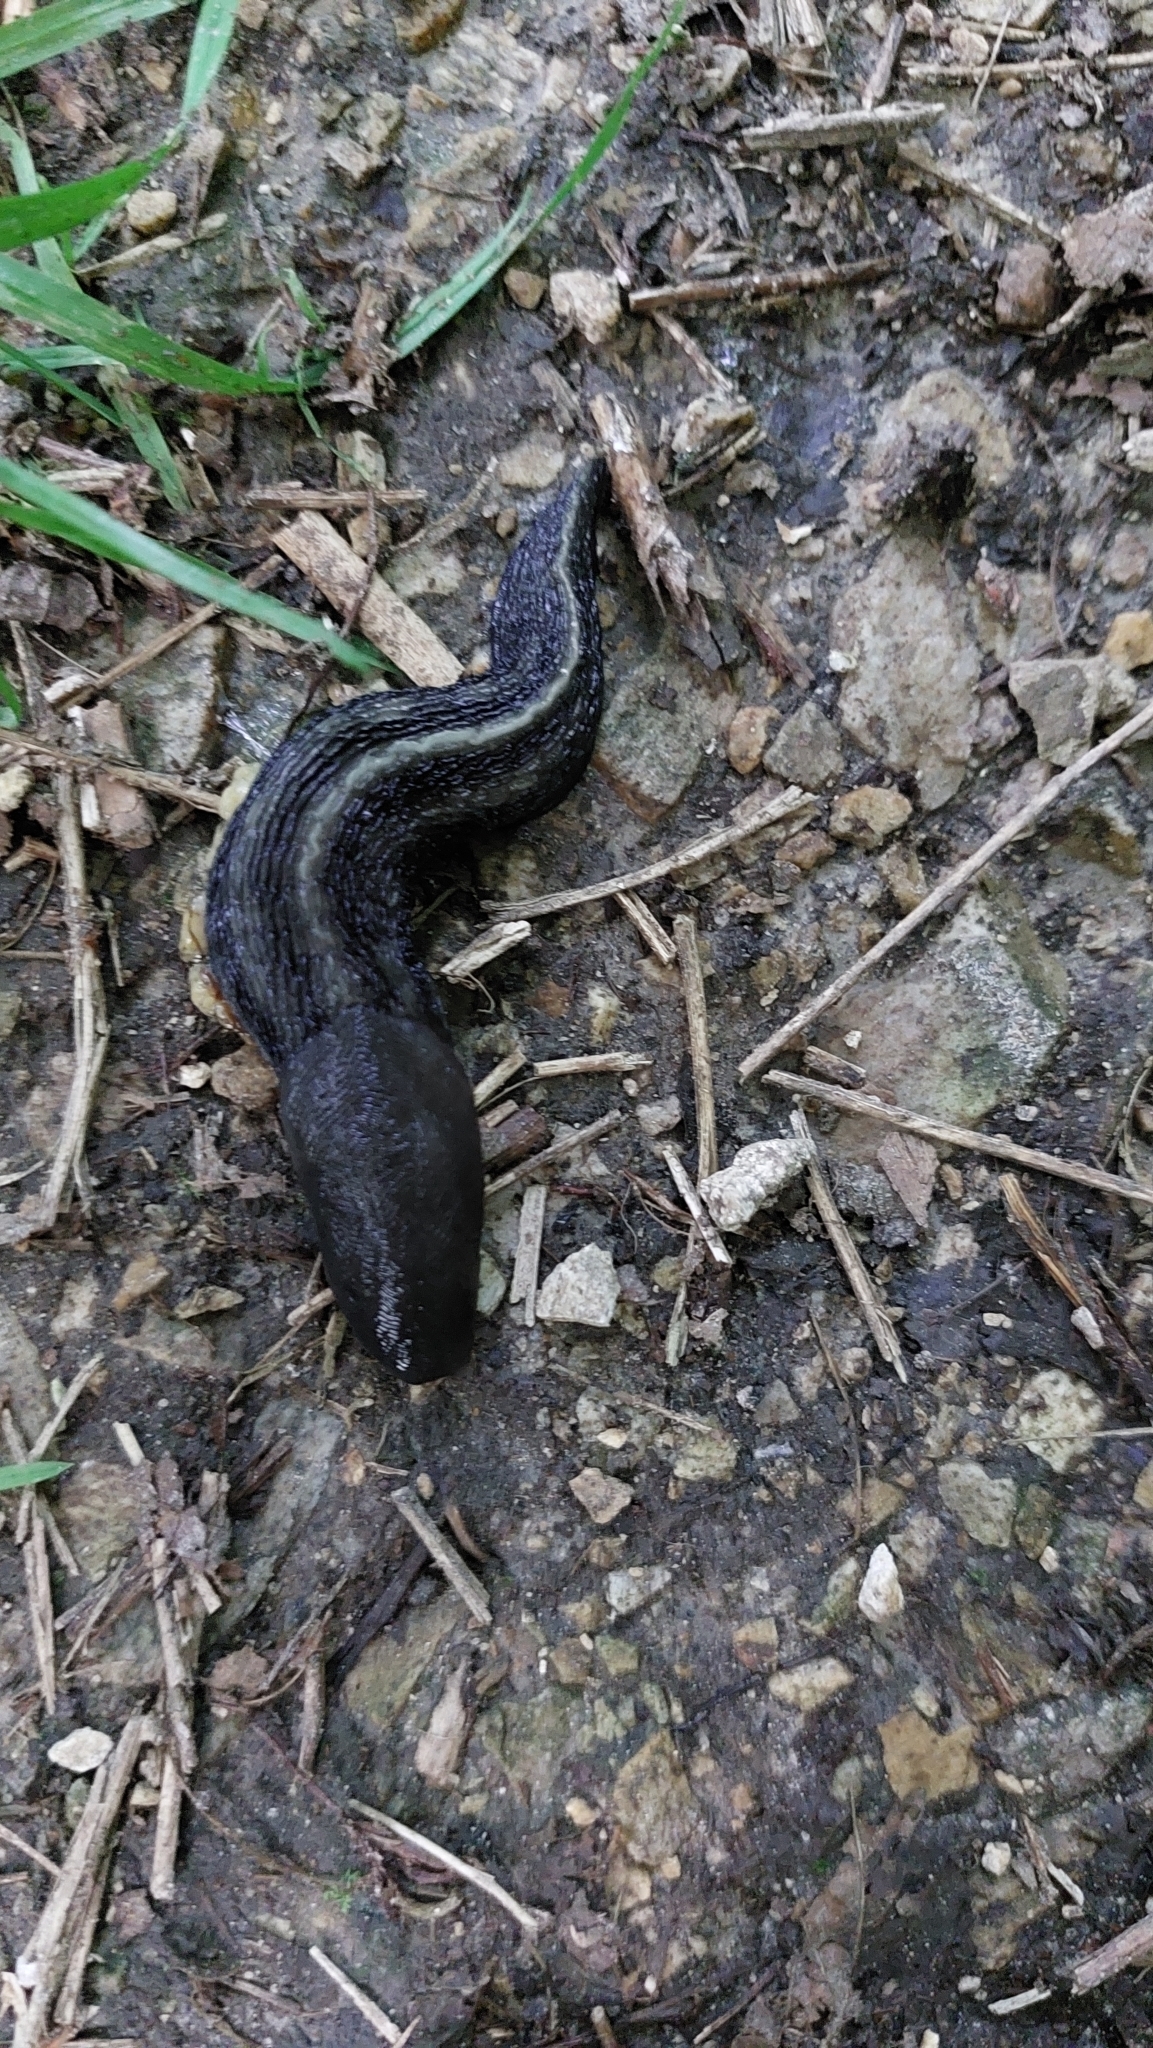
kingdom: Animalia
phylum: Mollusca
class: Gastropoda
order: Stylommatophora
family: Limacidae
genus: Limax
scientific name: Limax cinereoniger
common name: Ash-black slug
